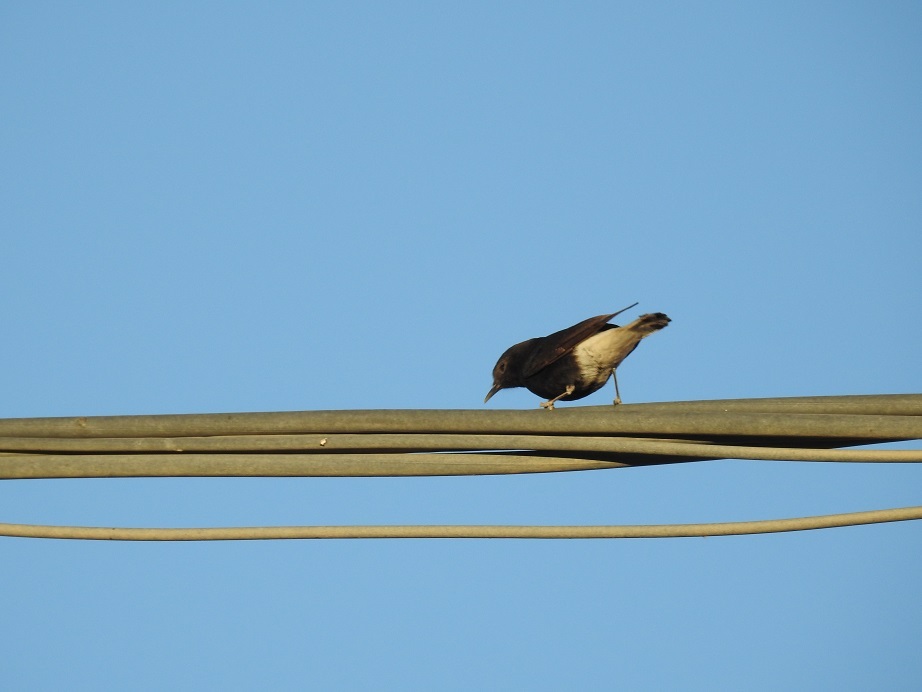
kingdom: Animalia
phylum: Chordata
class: Aves
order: Passeriformes
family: Muscicapidae
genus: Oenanthe
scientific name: Oenanthe leucopyga
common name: White-crowned wheatear
